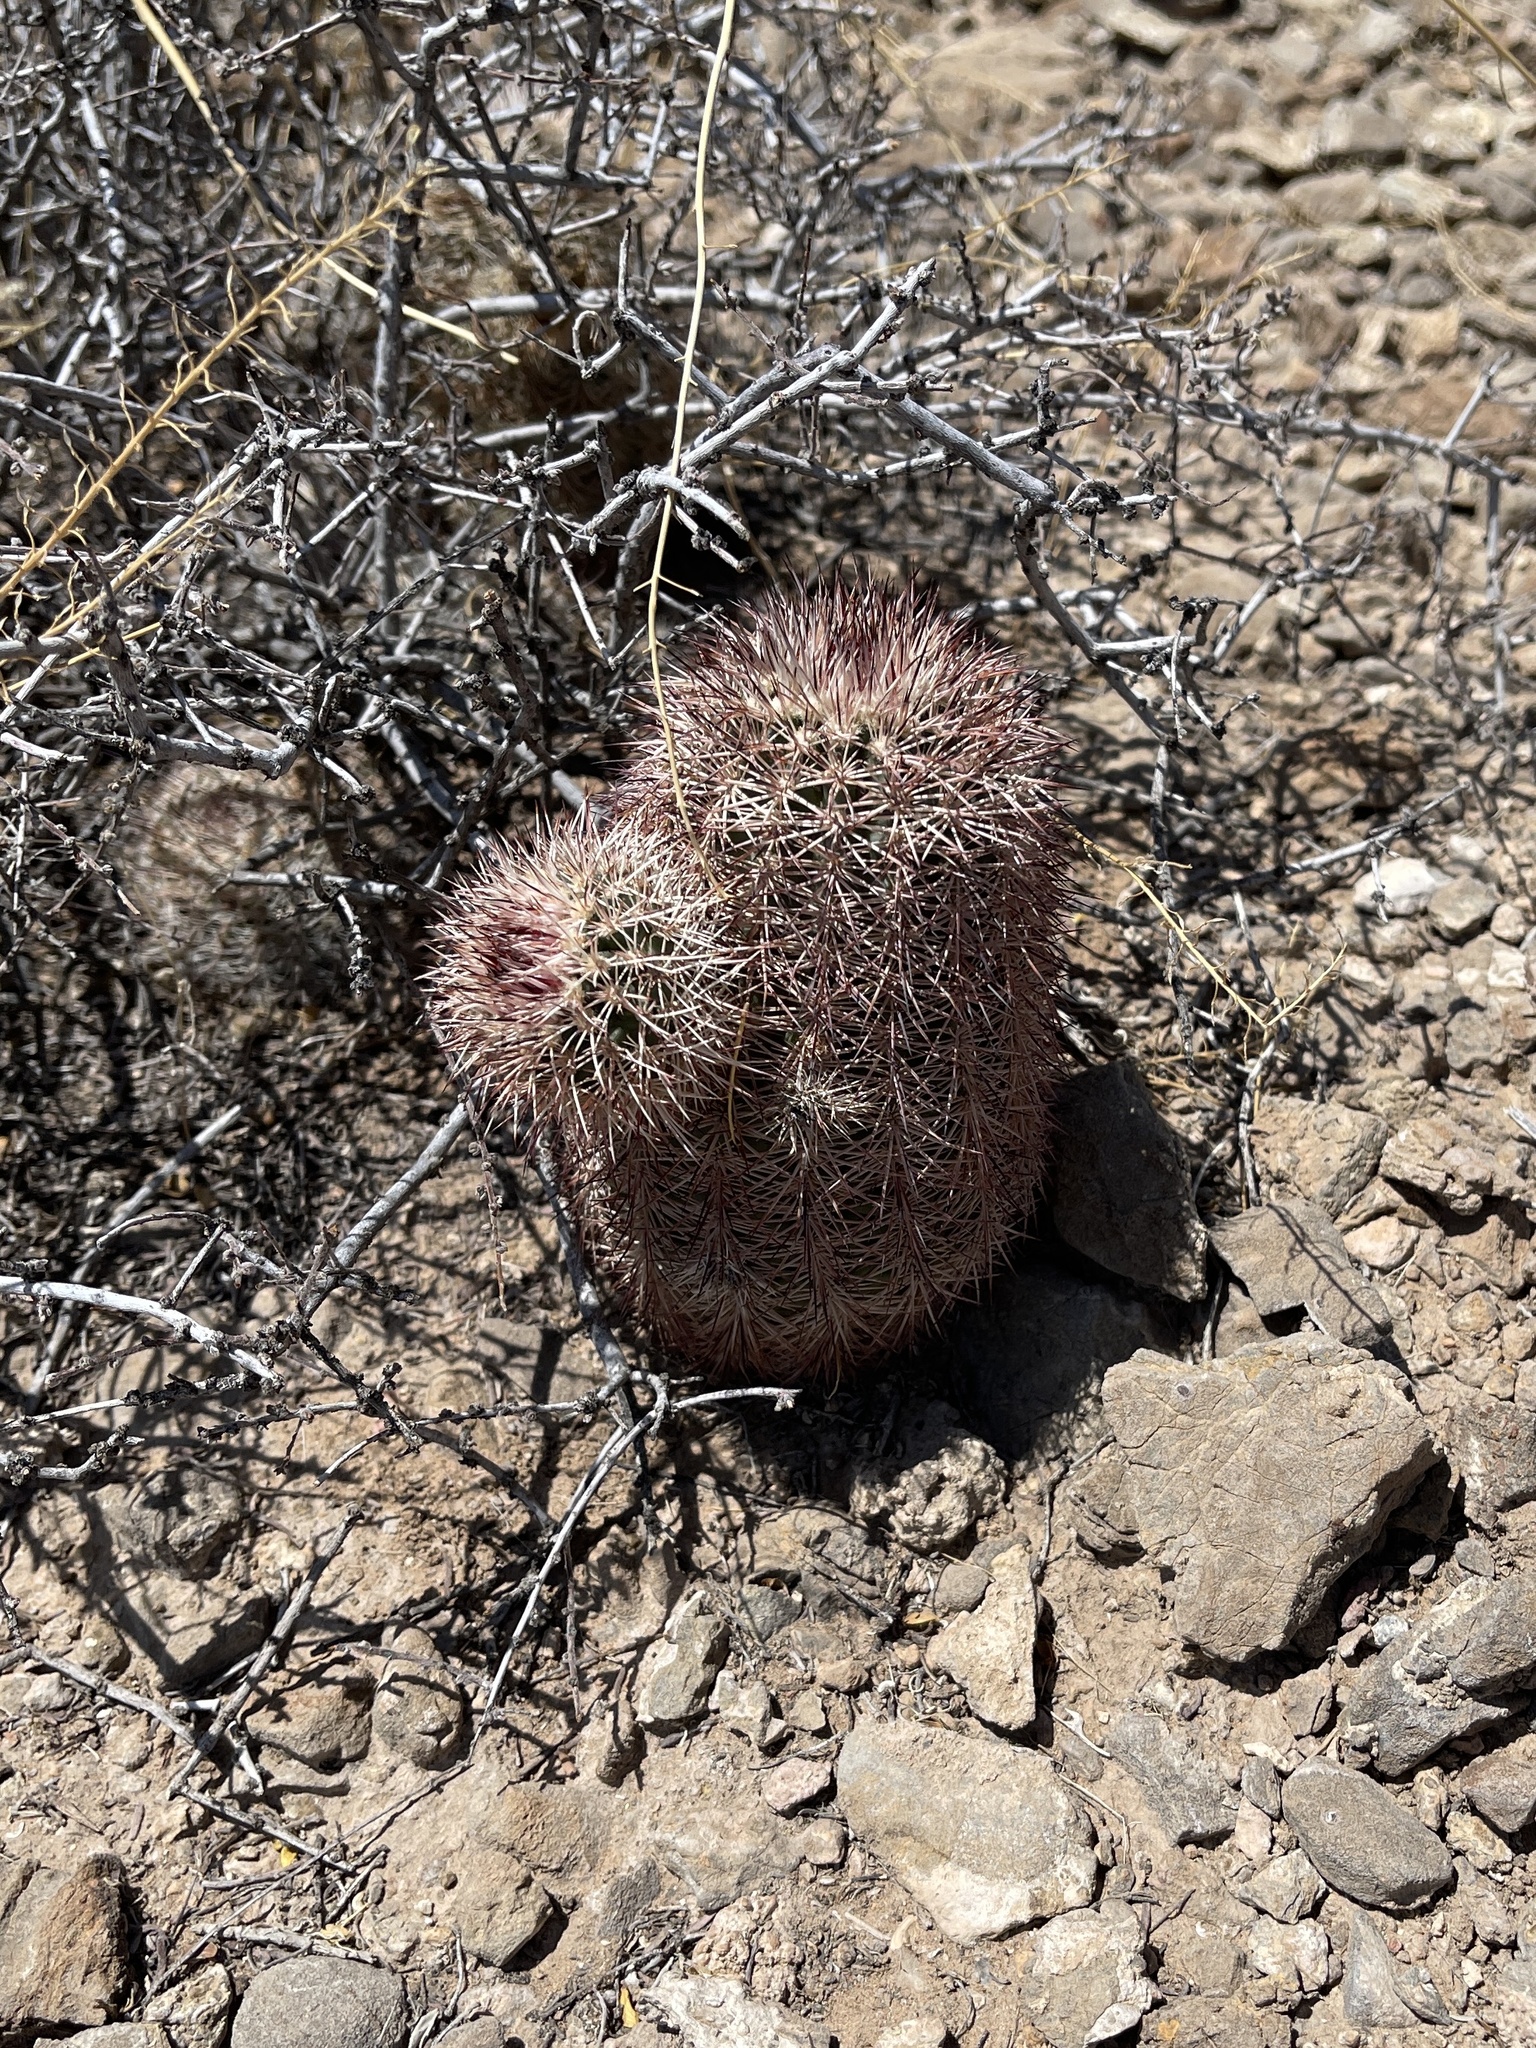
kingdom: Plantae
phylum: Tracheophyta
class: Magnoliopsida
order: Caryophyllales
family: Cactaceae
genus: Echinocereus
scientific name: Echinocereus dasyacanthus
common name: Spiny hedgehog cactus
